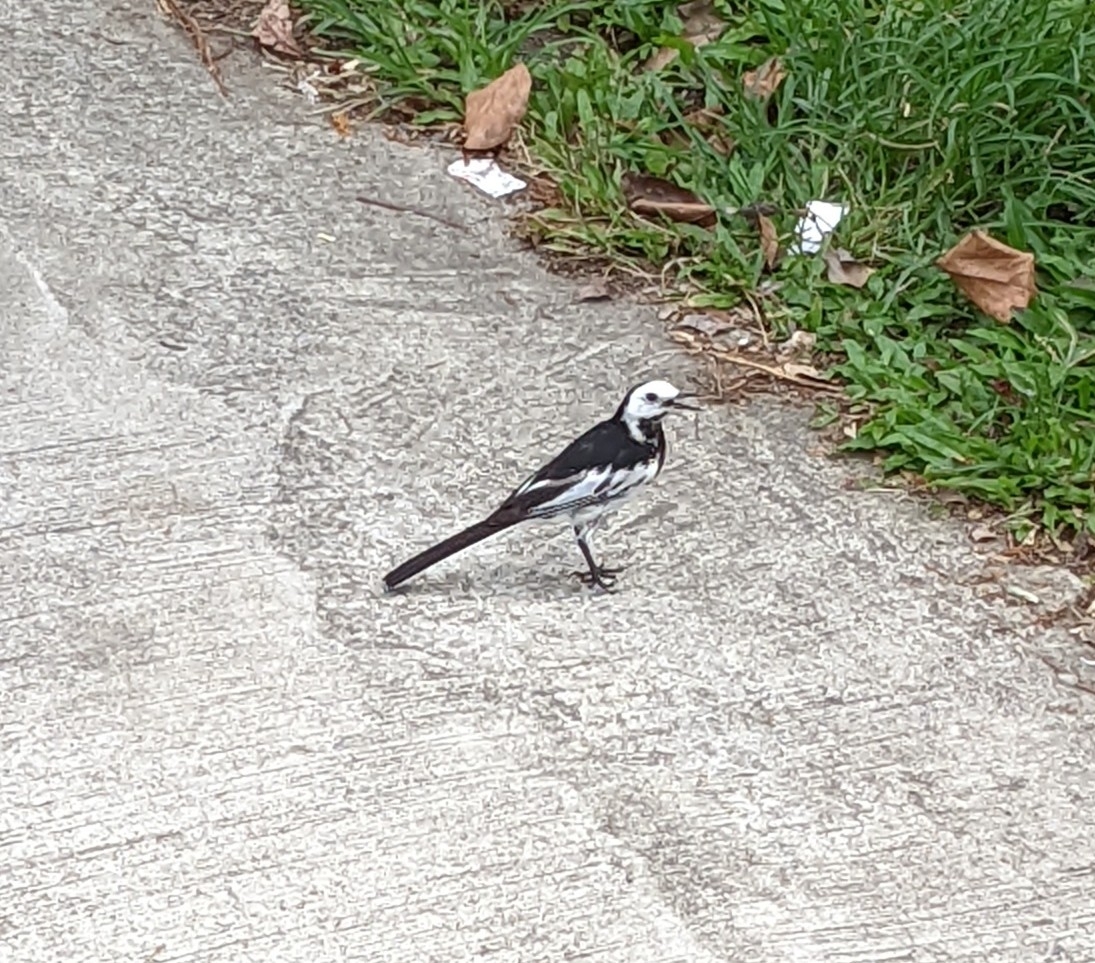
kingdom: Animalia
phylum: Chordata
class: Aves
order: Passeriformes
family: Motacillidae
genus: Motacilla
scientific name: Motacilla alba
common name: White wagtail
